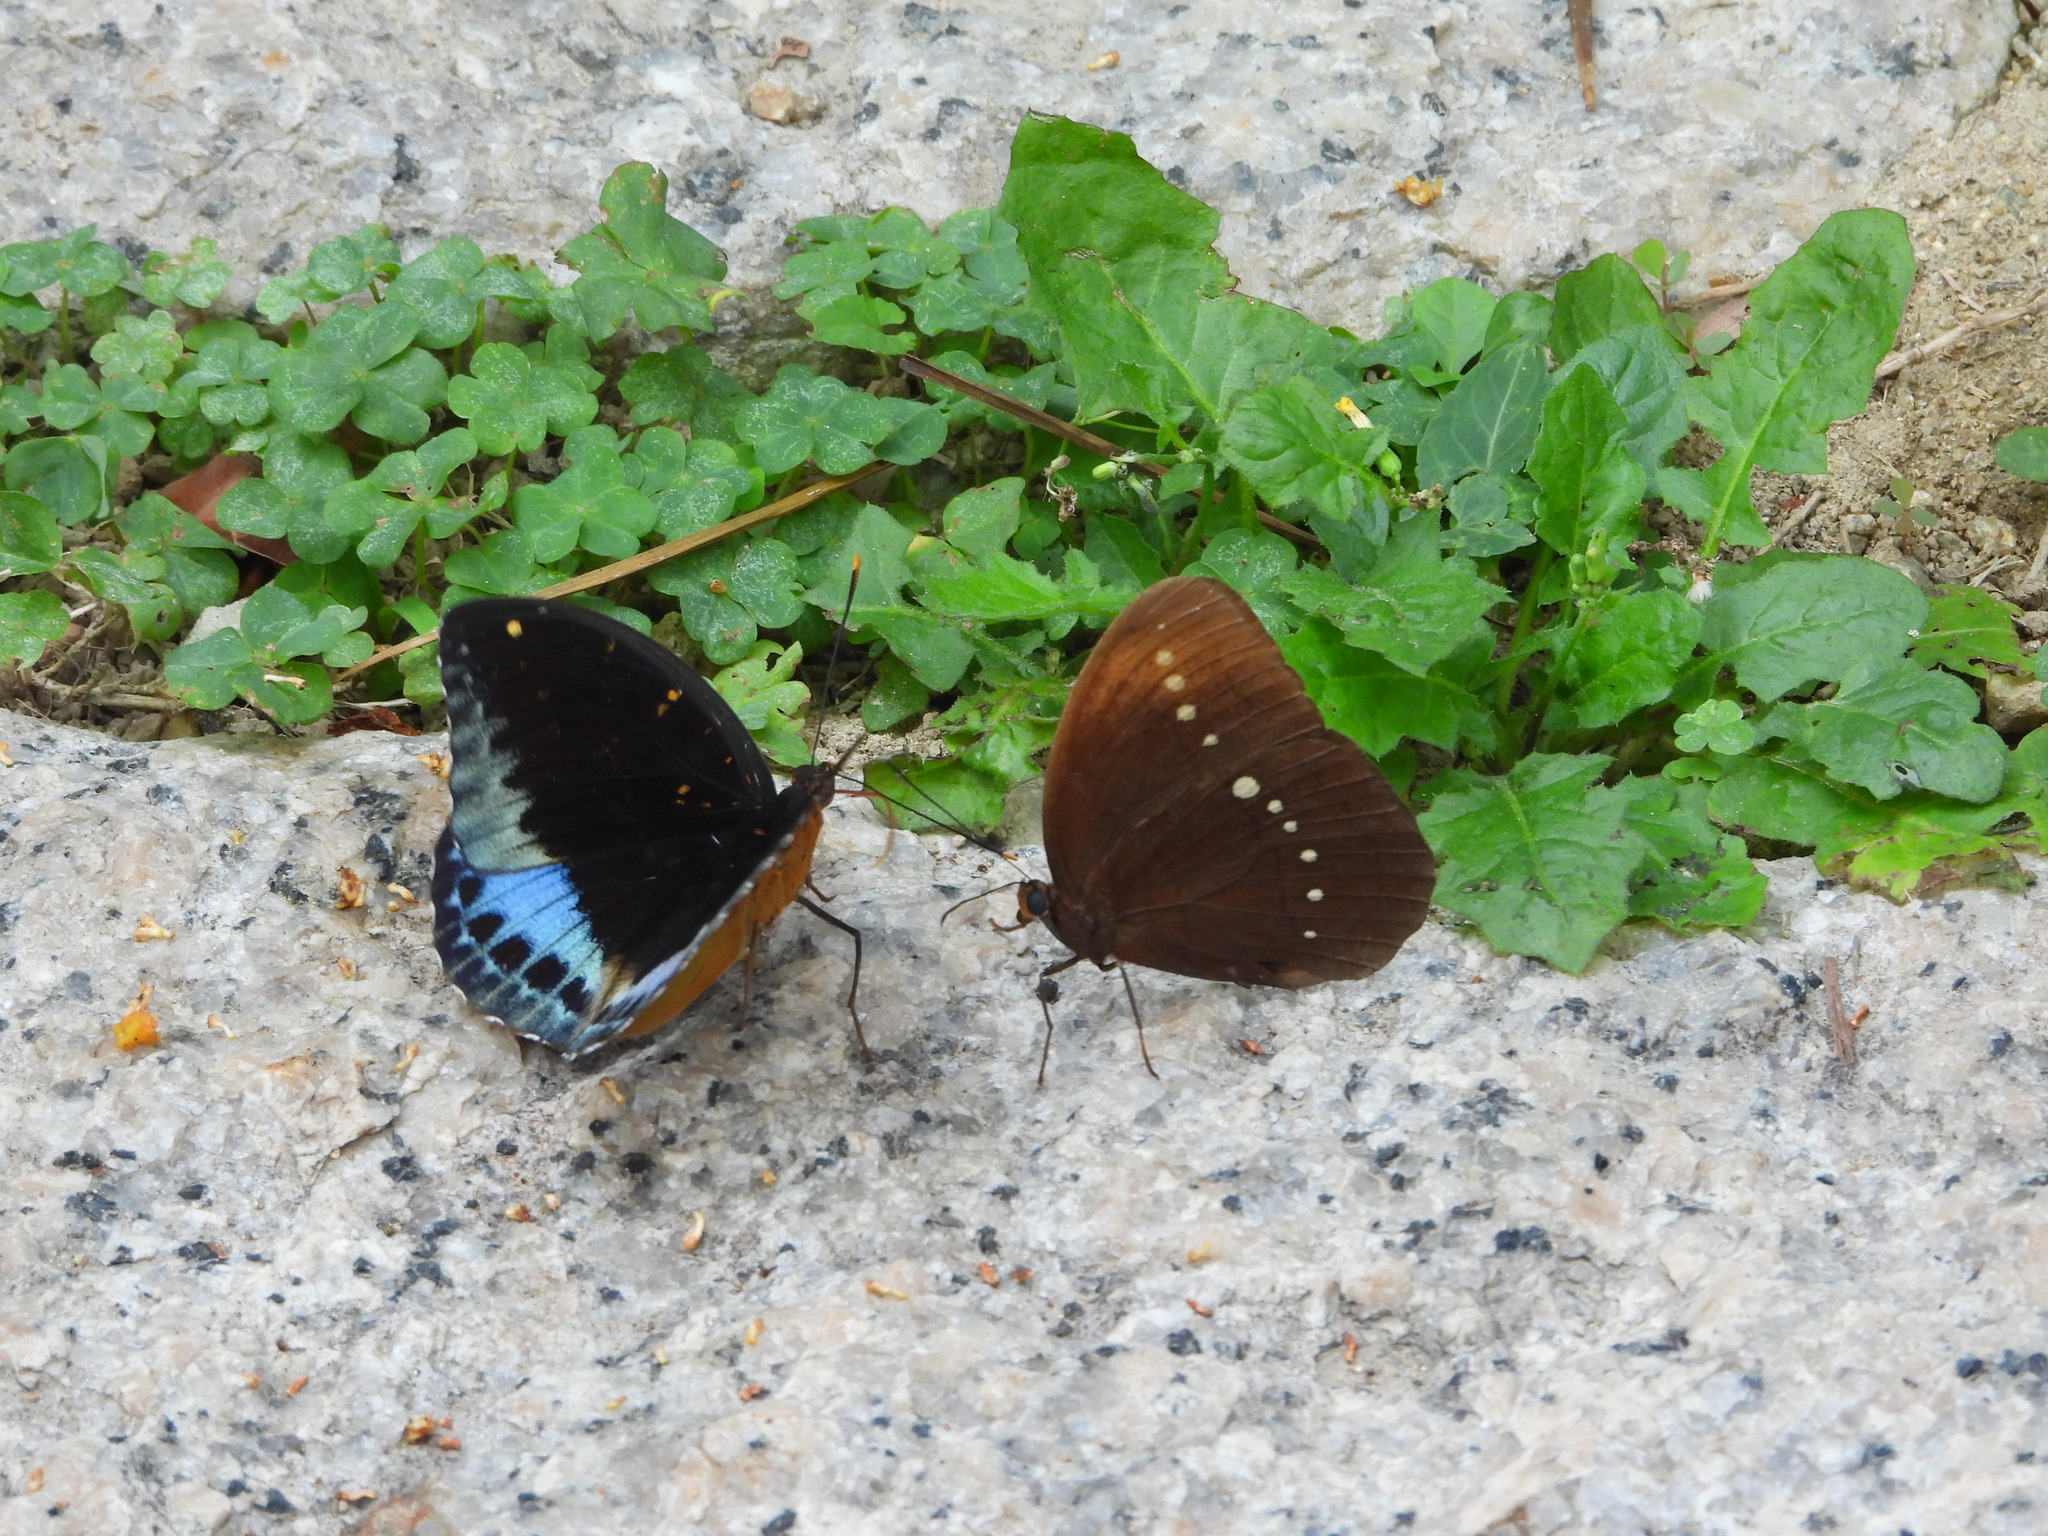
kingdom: Animalia
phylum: Arthropoda
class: Insecta
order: Lepidoptera
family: Nymphalidae
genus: Faunis
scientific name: Faunis eumeus
